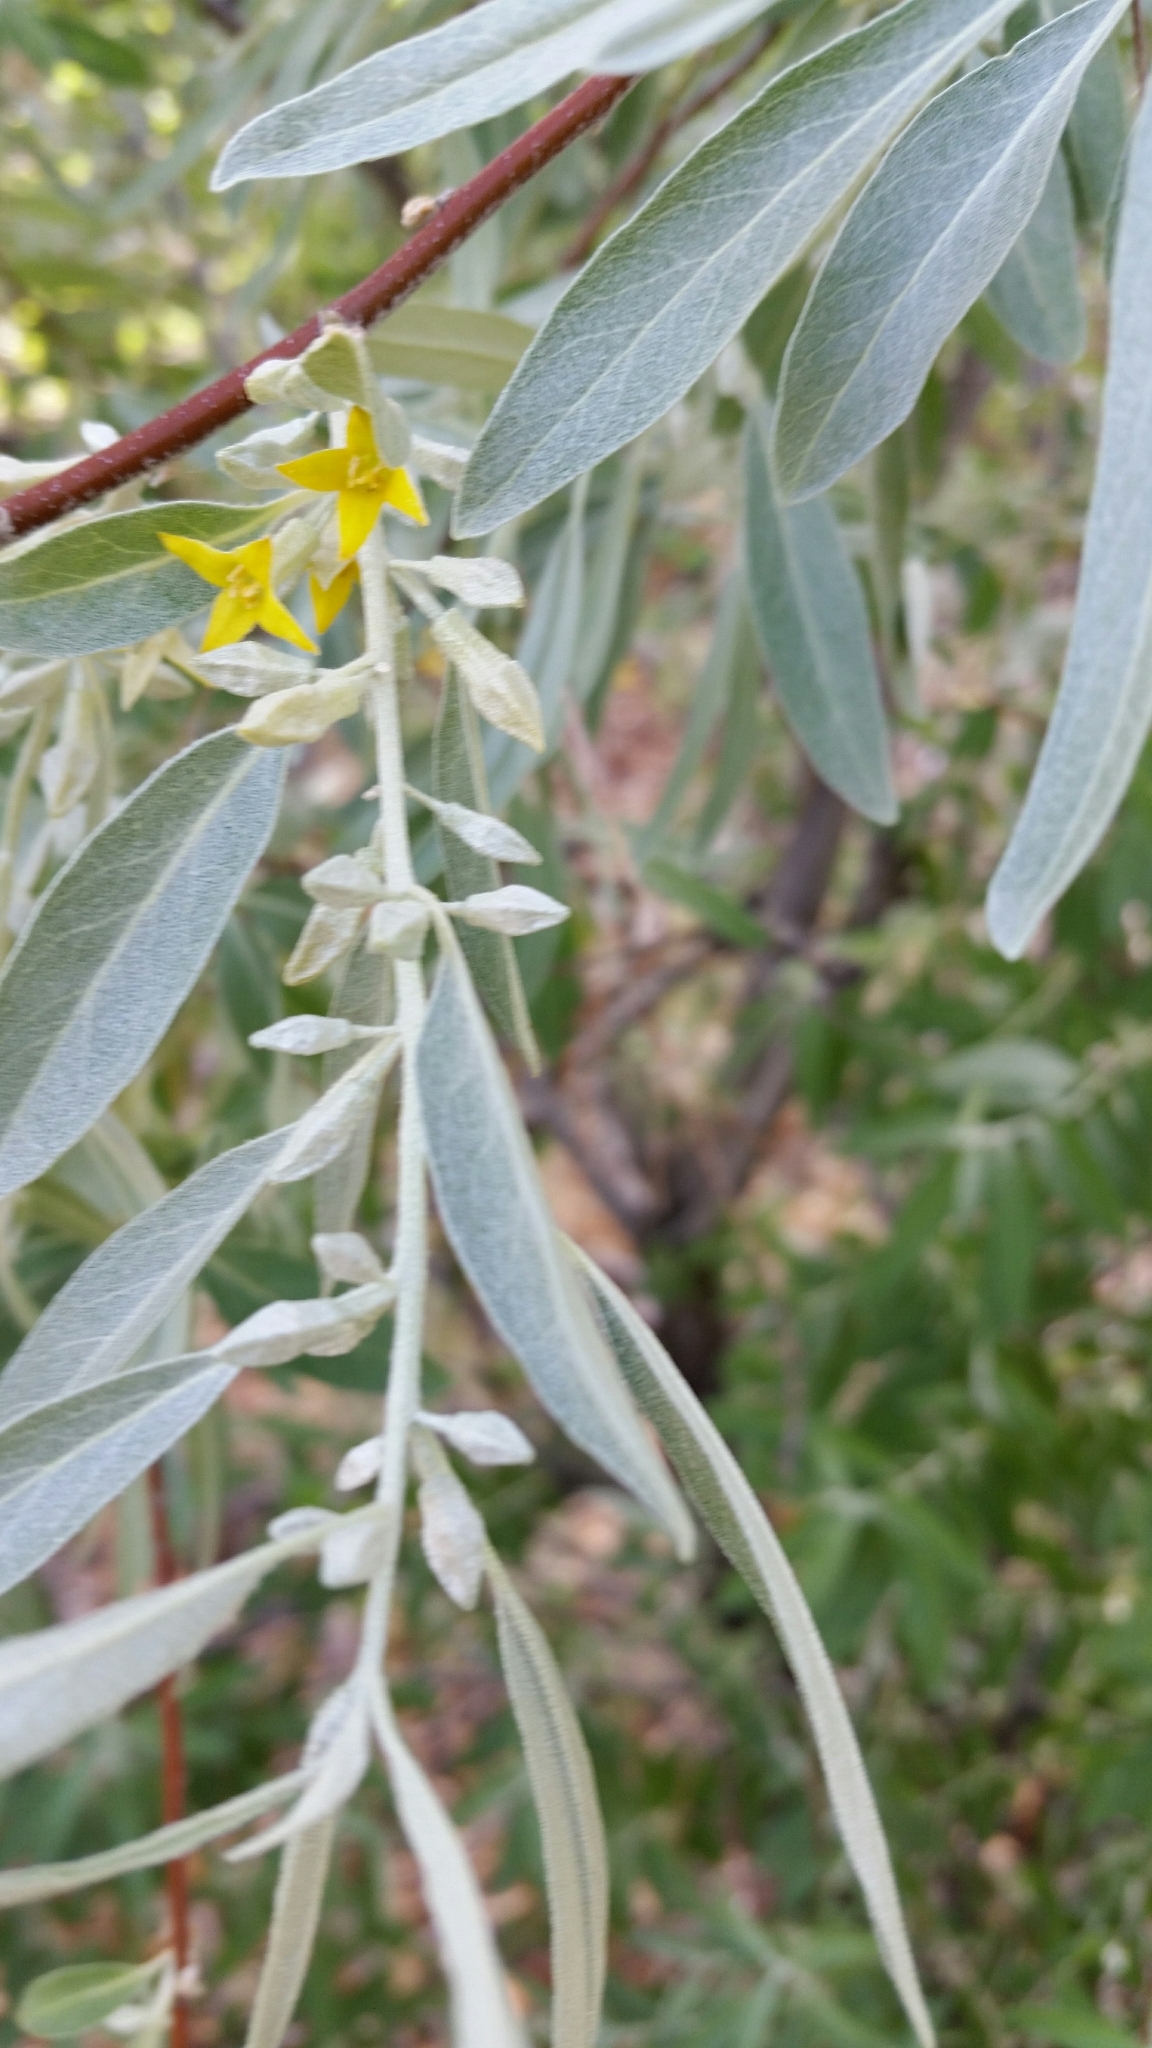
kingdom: Plantae
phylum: Tracheophyta
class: Magnoliopsida
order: Rosales
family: Elaeagnaceae
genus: Elaeagnus
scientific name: Elaeagnus angustifolia
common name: Russian olive
